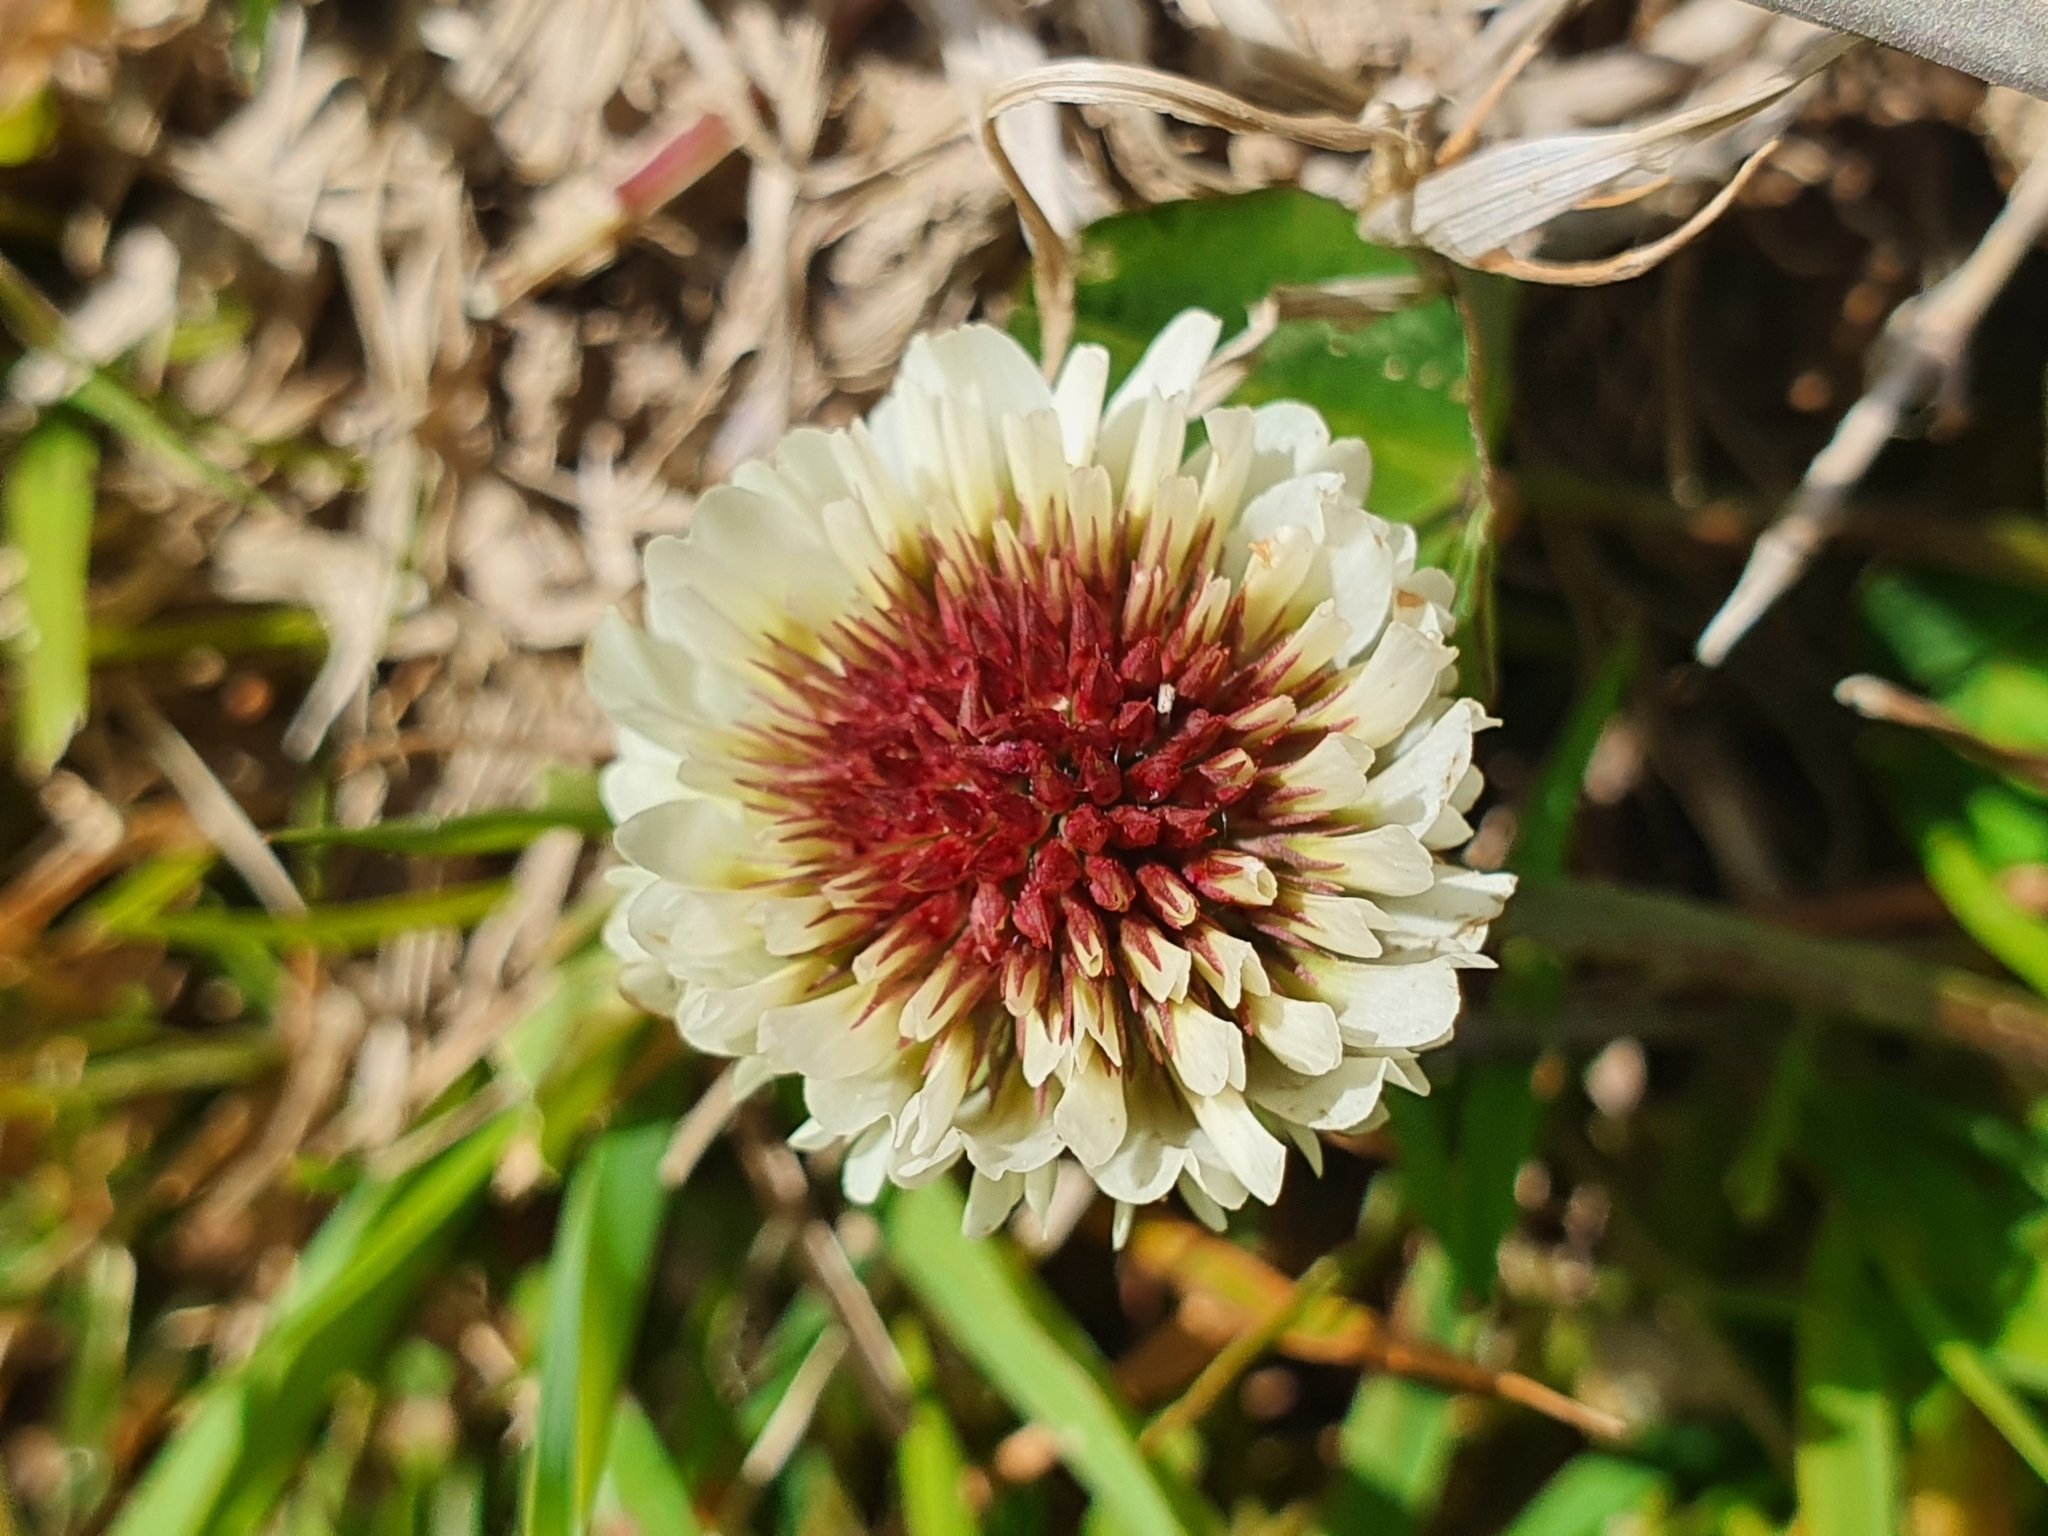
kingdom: Plantae
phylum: Tracheophyta
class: Magnoliopsida
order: Fabales
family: Fabaceae
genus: Trifolium
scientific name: Trifolium repens
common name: White clover
